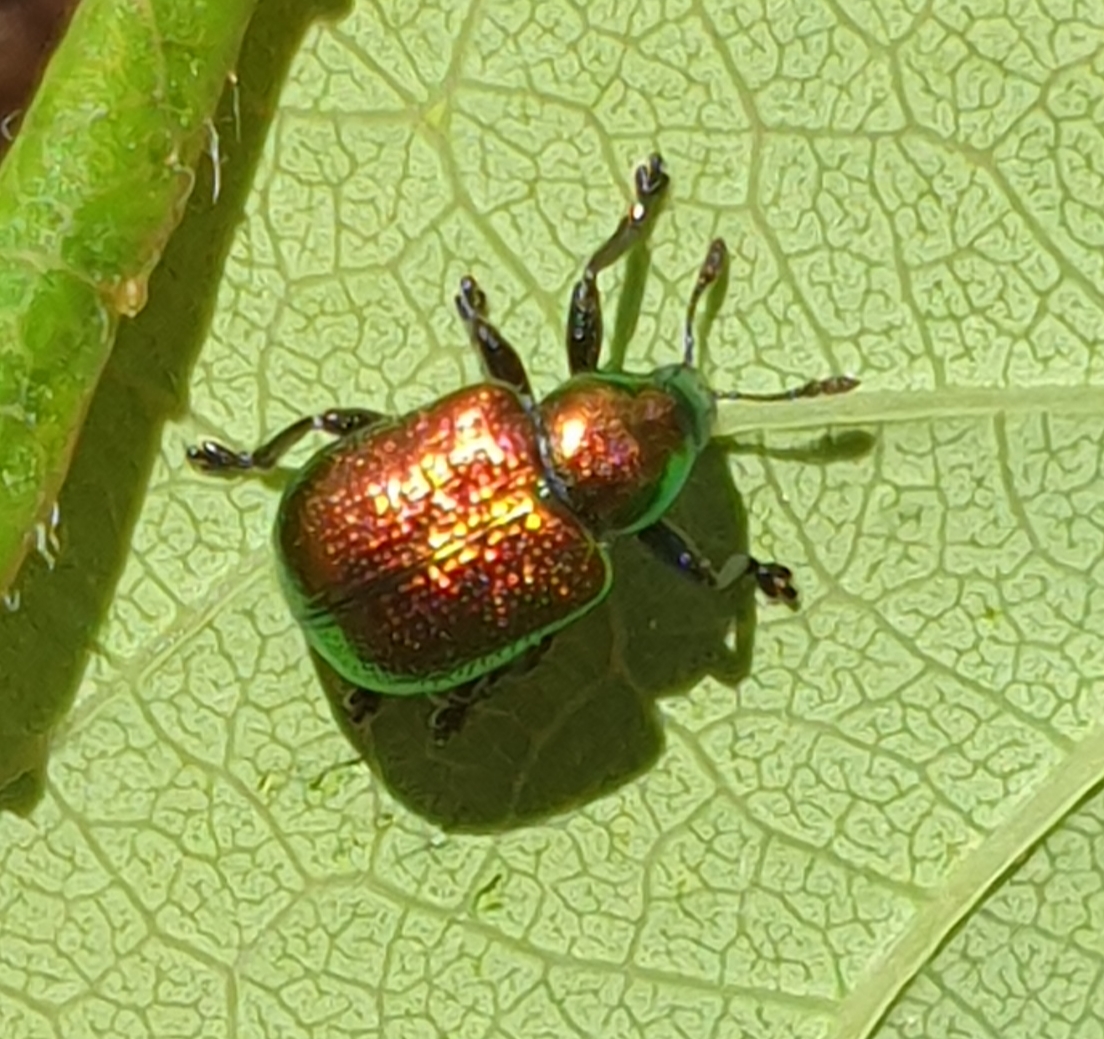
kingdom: Animalia
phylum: Arthropoda
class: Insecta
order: Coleoptera
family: Attelabidae
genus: Byctiscus
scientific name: Byctiscus populi
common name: Leaf-rolling weevil
